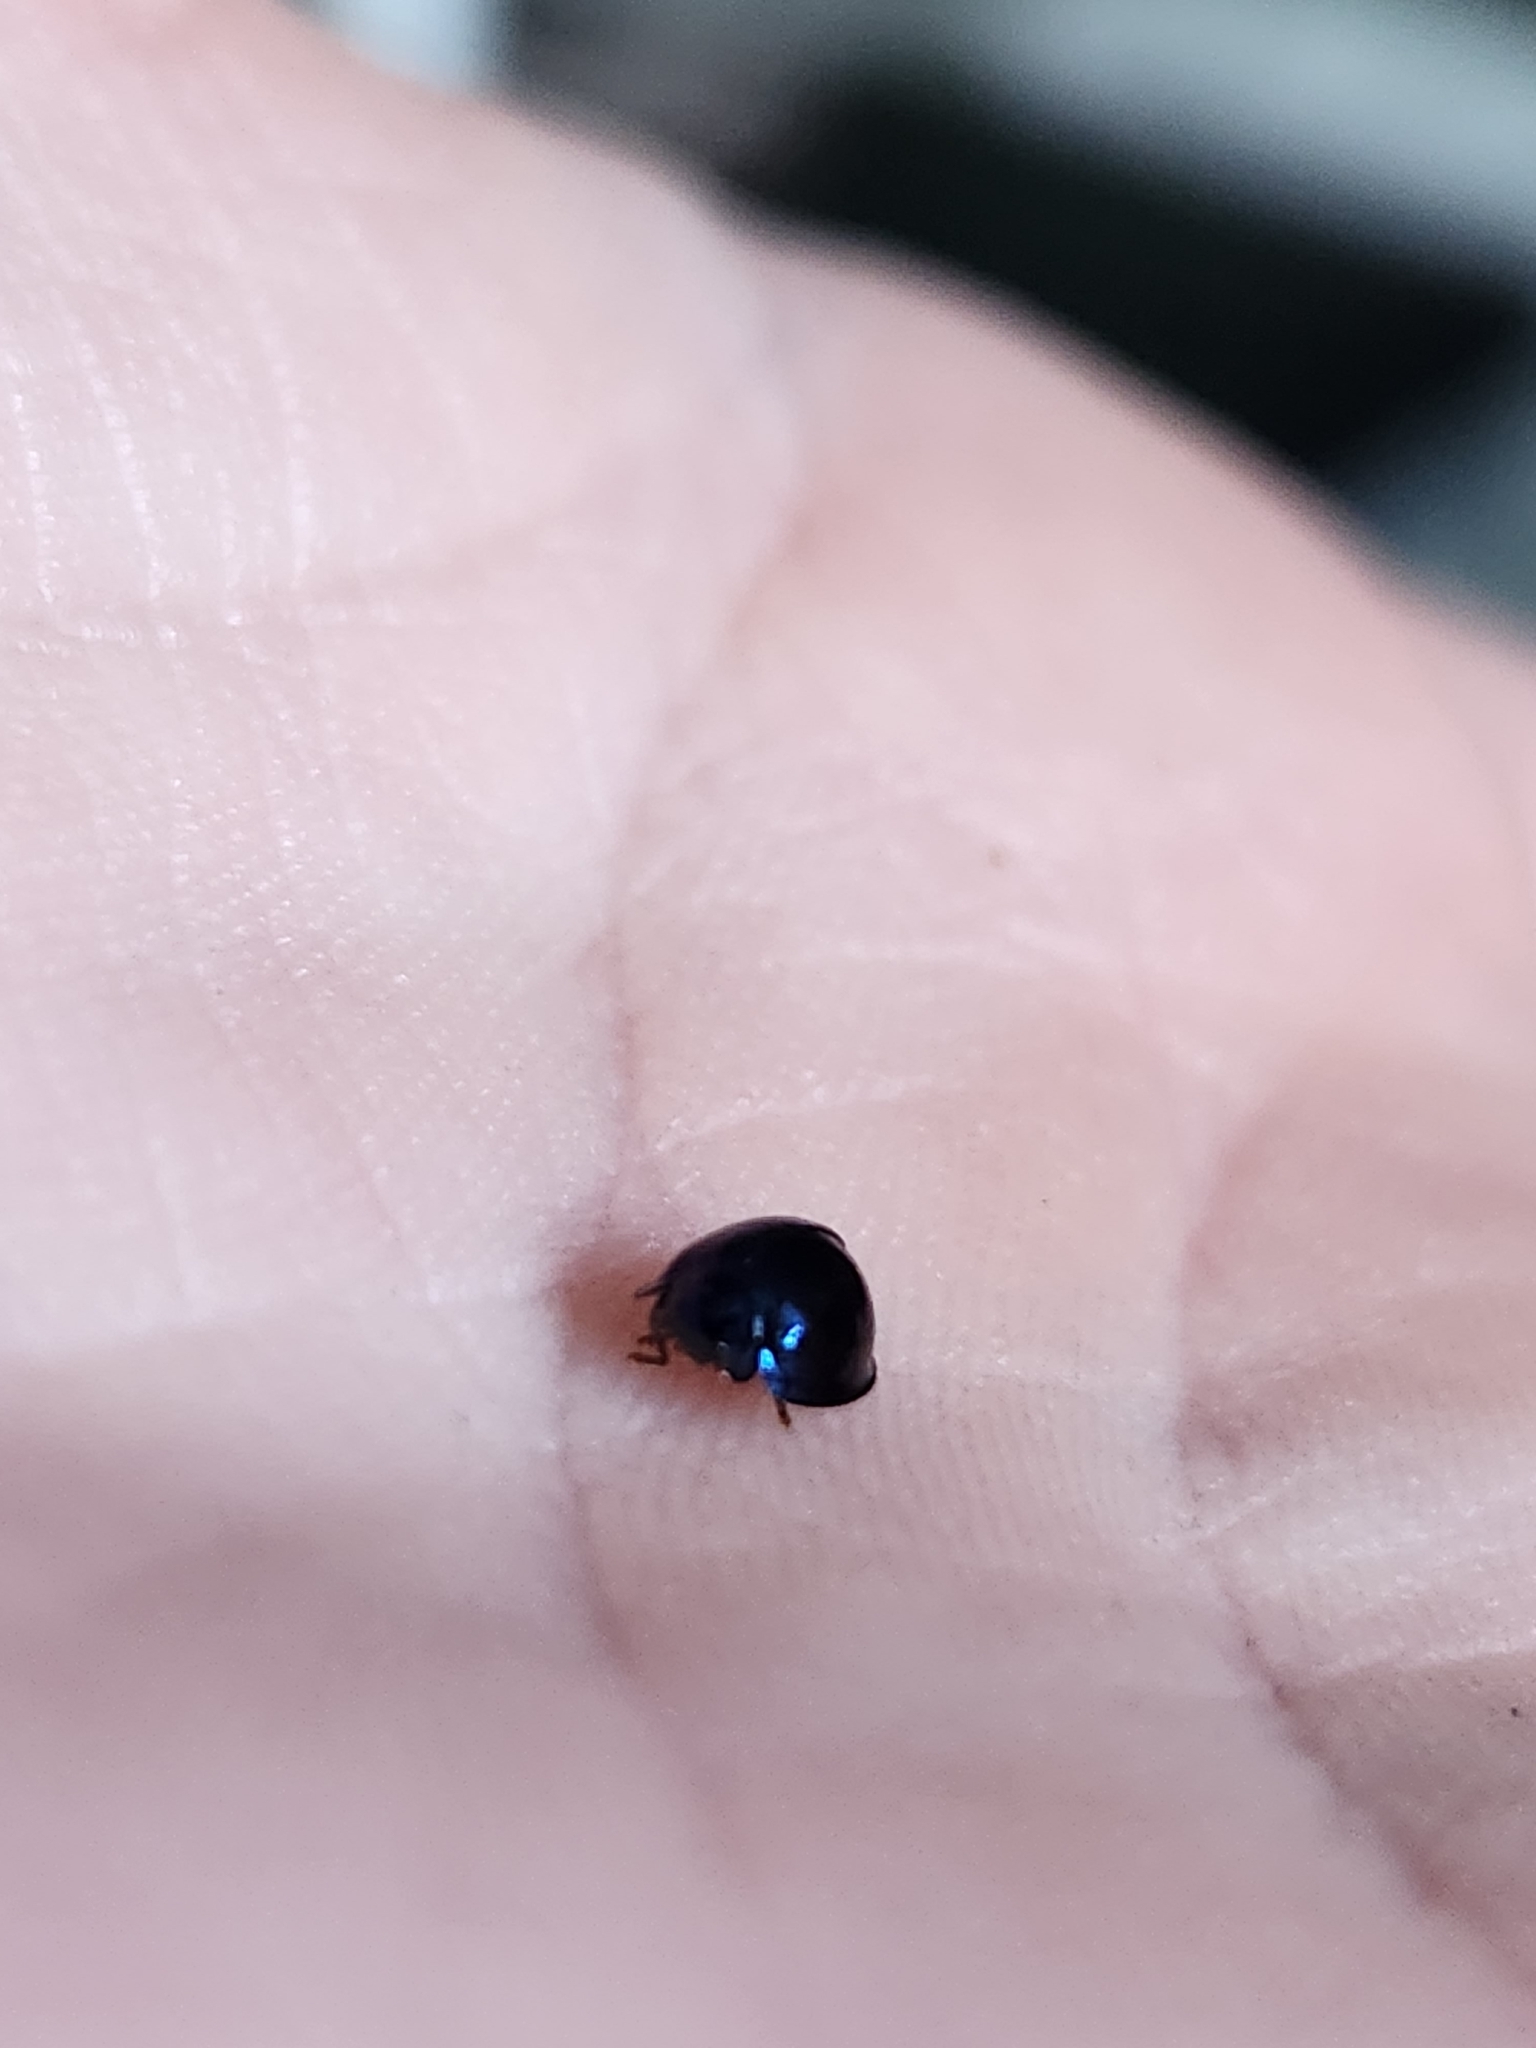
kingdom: Animalia
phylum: Arthropoda
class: Insecta
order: Coleoptera
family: Coccinellidae
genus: Halmus
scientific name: Halmus chalybeus
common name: Steel blue ladybird beetle
